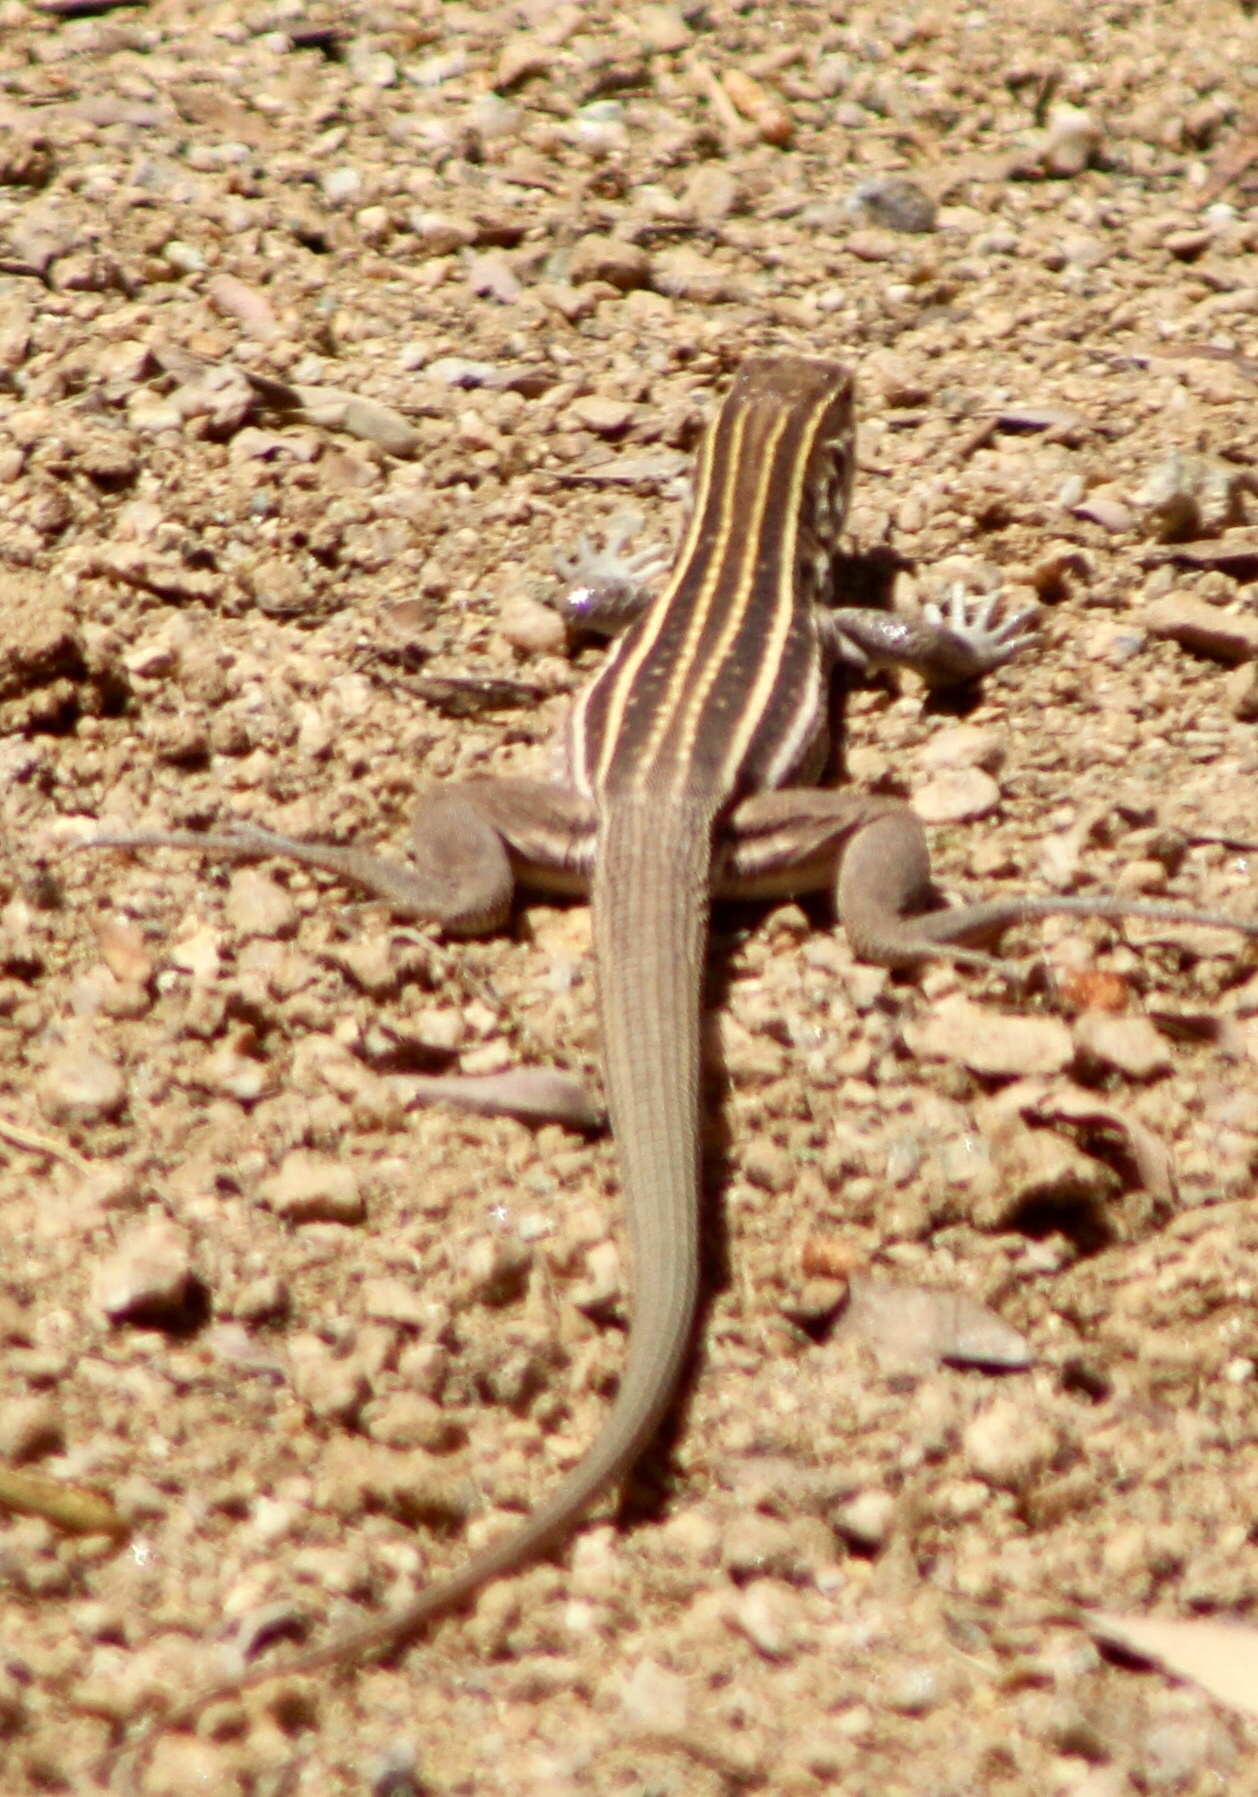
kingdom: Animalia
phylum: Chordata
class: Squamata
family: Teiidae
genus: Aspidoscelis
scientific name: Aspidoscelis sonorae
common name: Sonoran spotted whiptail
